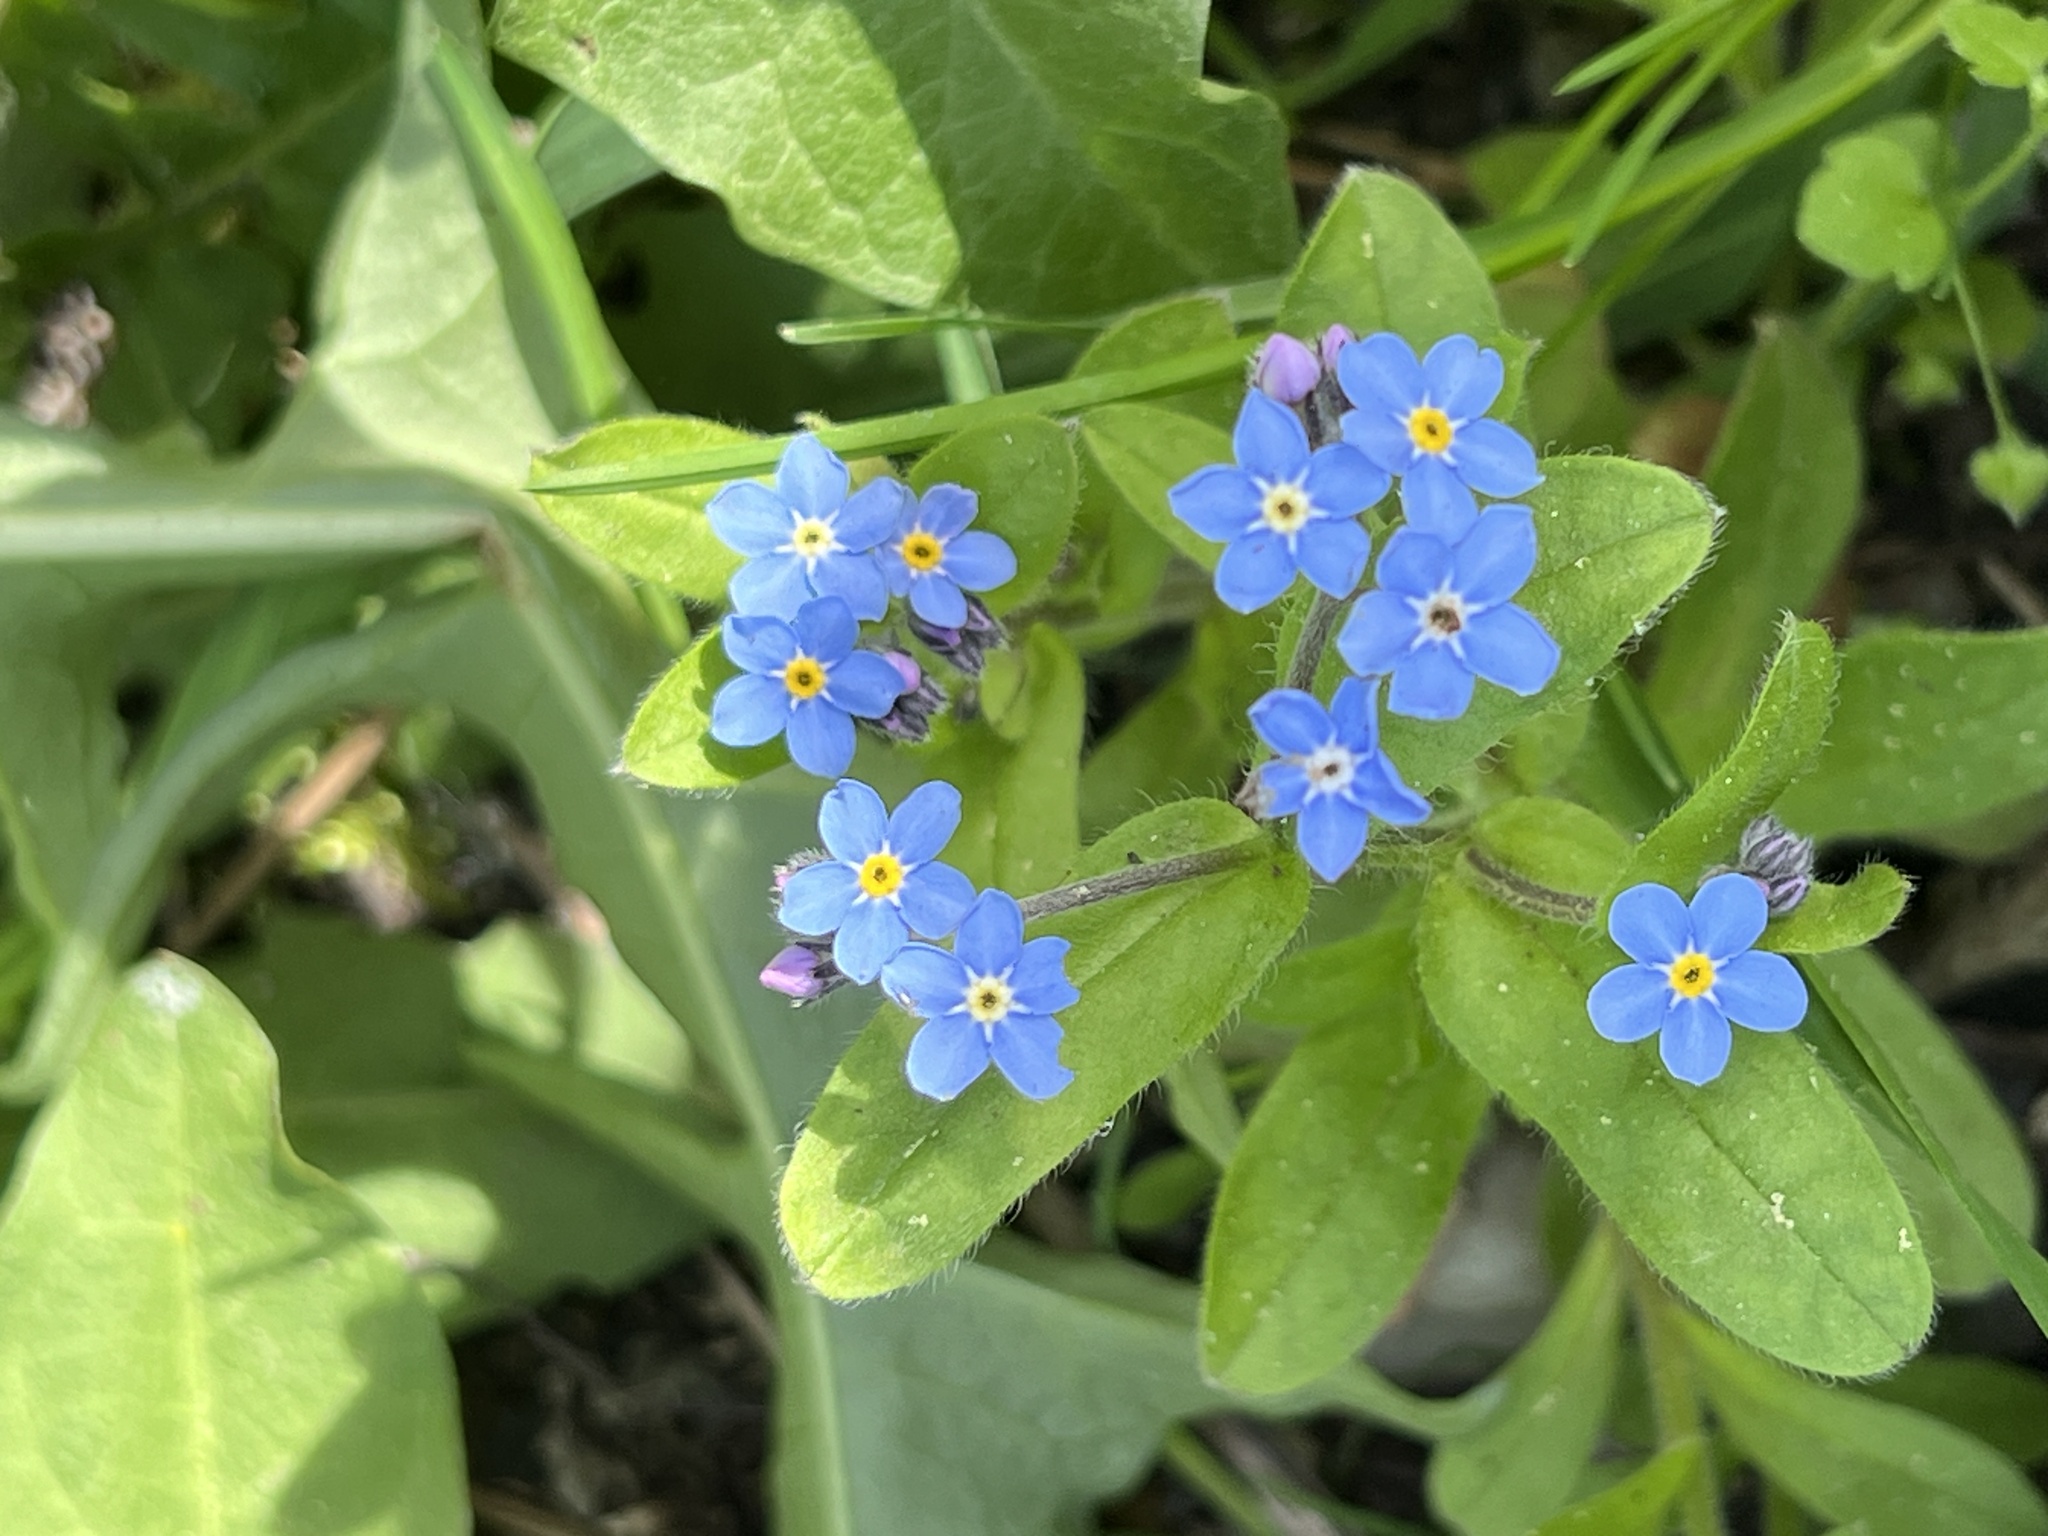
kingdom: Plantae
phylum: Tracheophyta
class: Magnoliopsida
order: Boraginales
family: Boraginaceae
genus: Myosotis
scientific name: Myosotis sylvatica
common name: Wood forget-me-not
